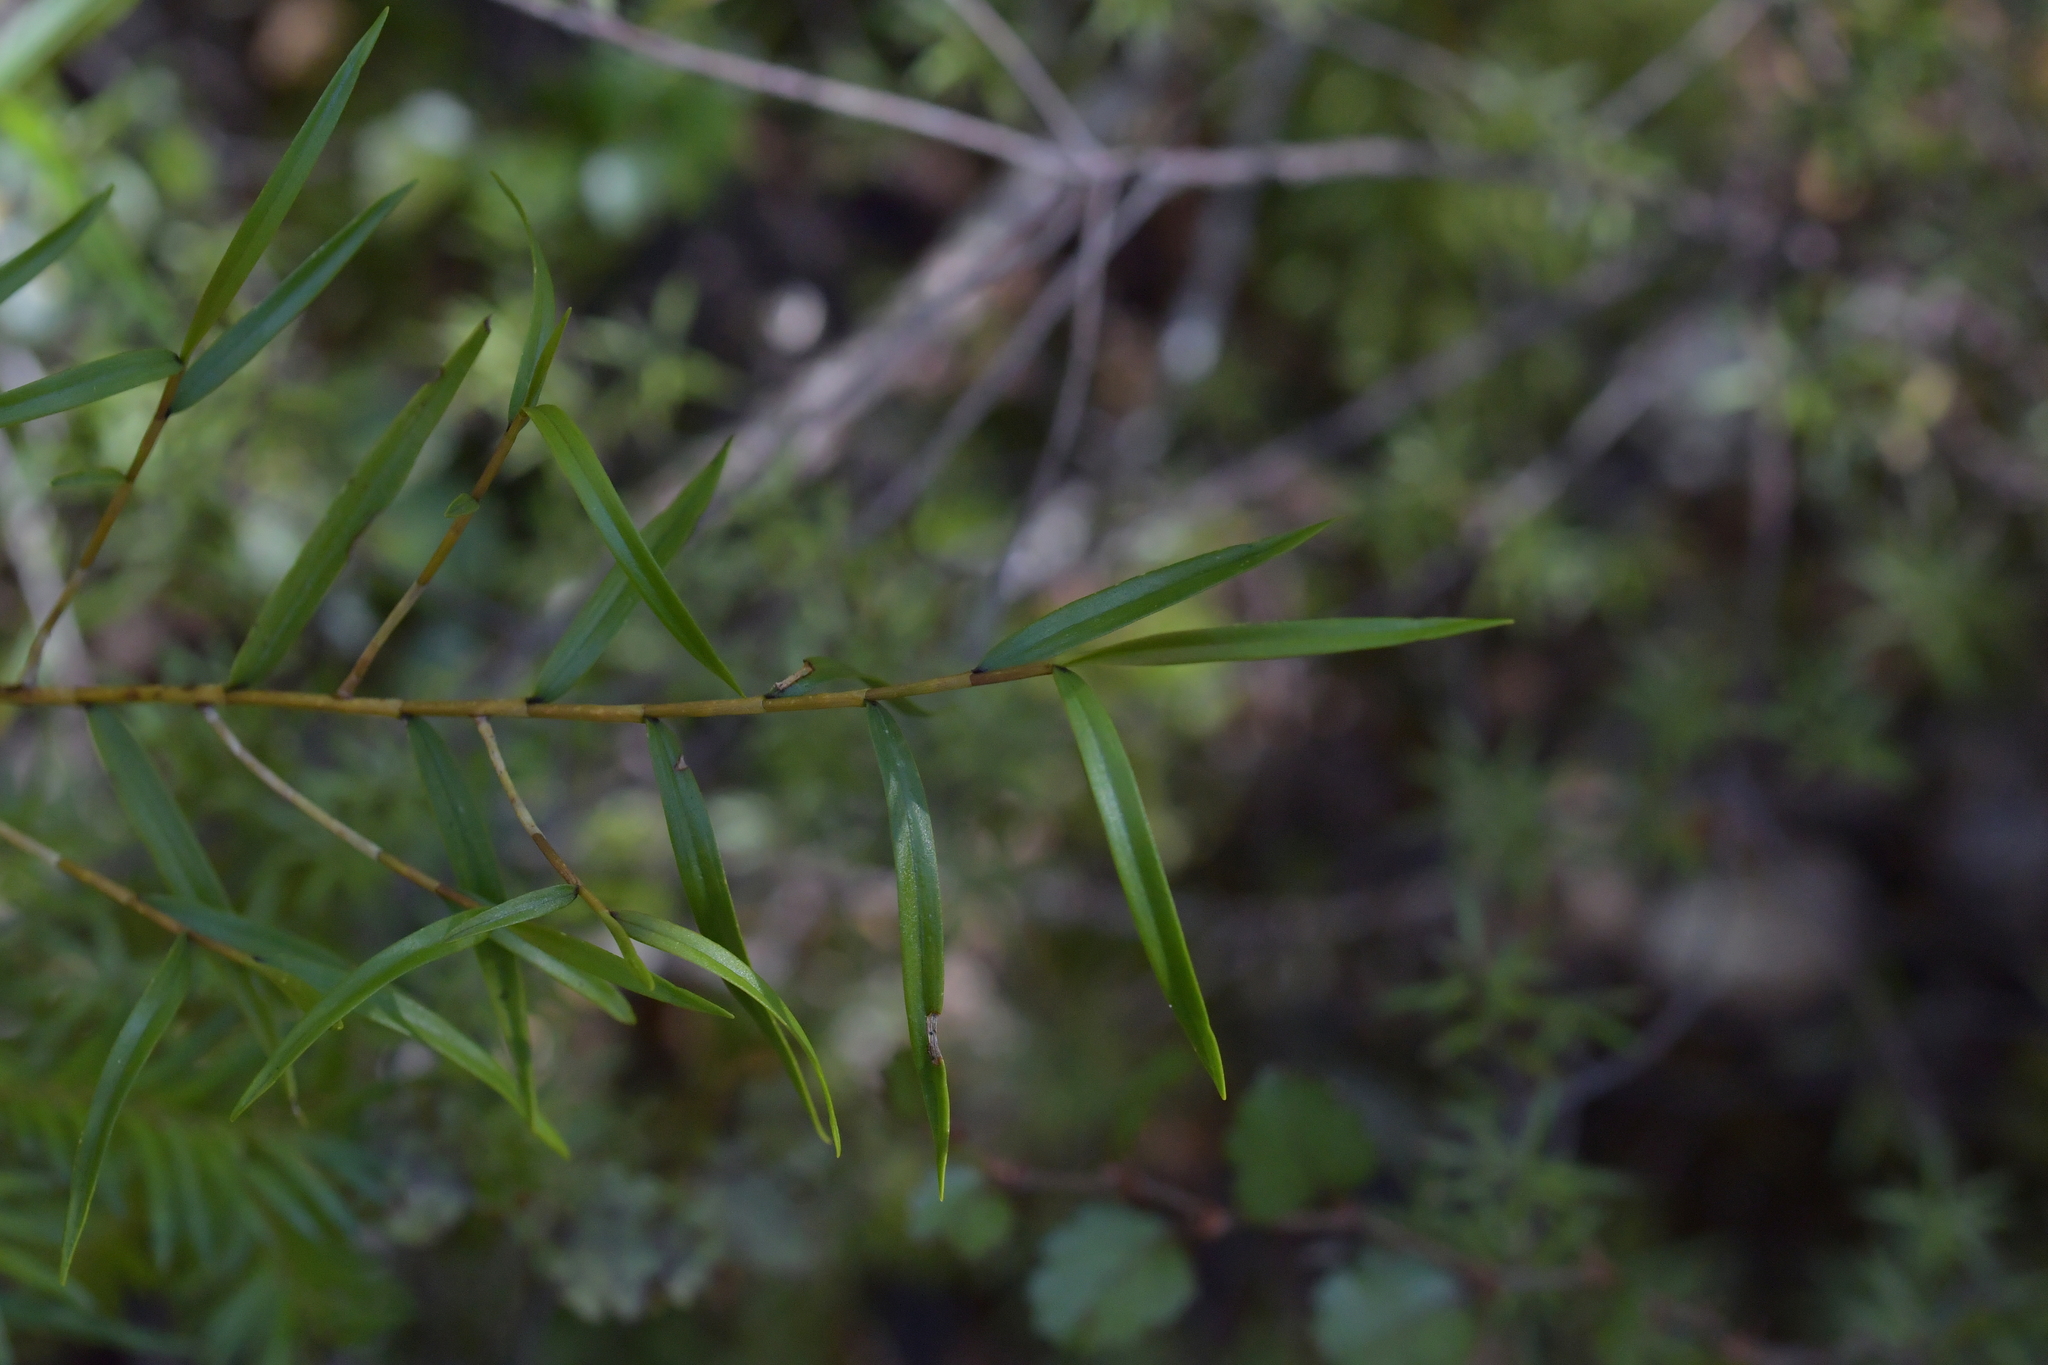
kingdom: Plantae
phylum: Tracheophyta
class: Liliopsida
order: Asparagales
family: Orchidaceae
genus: Dendrobium
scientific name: Dendrobium cunninghamii
